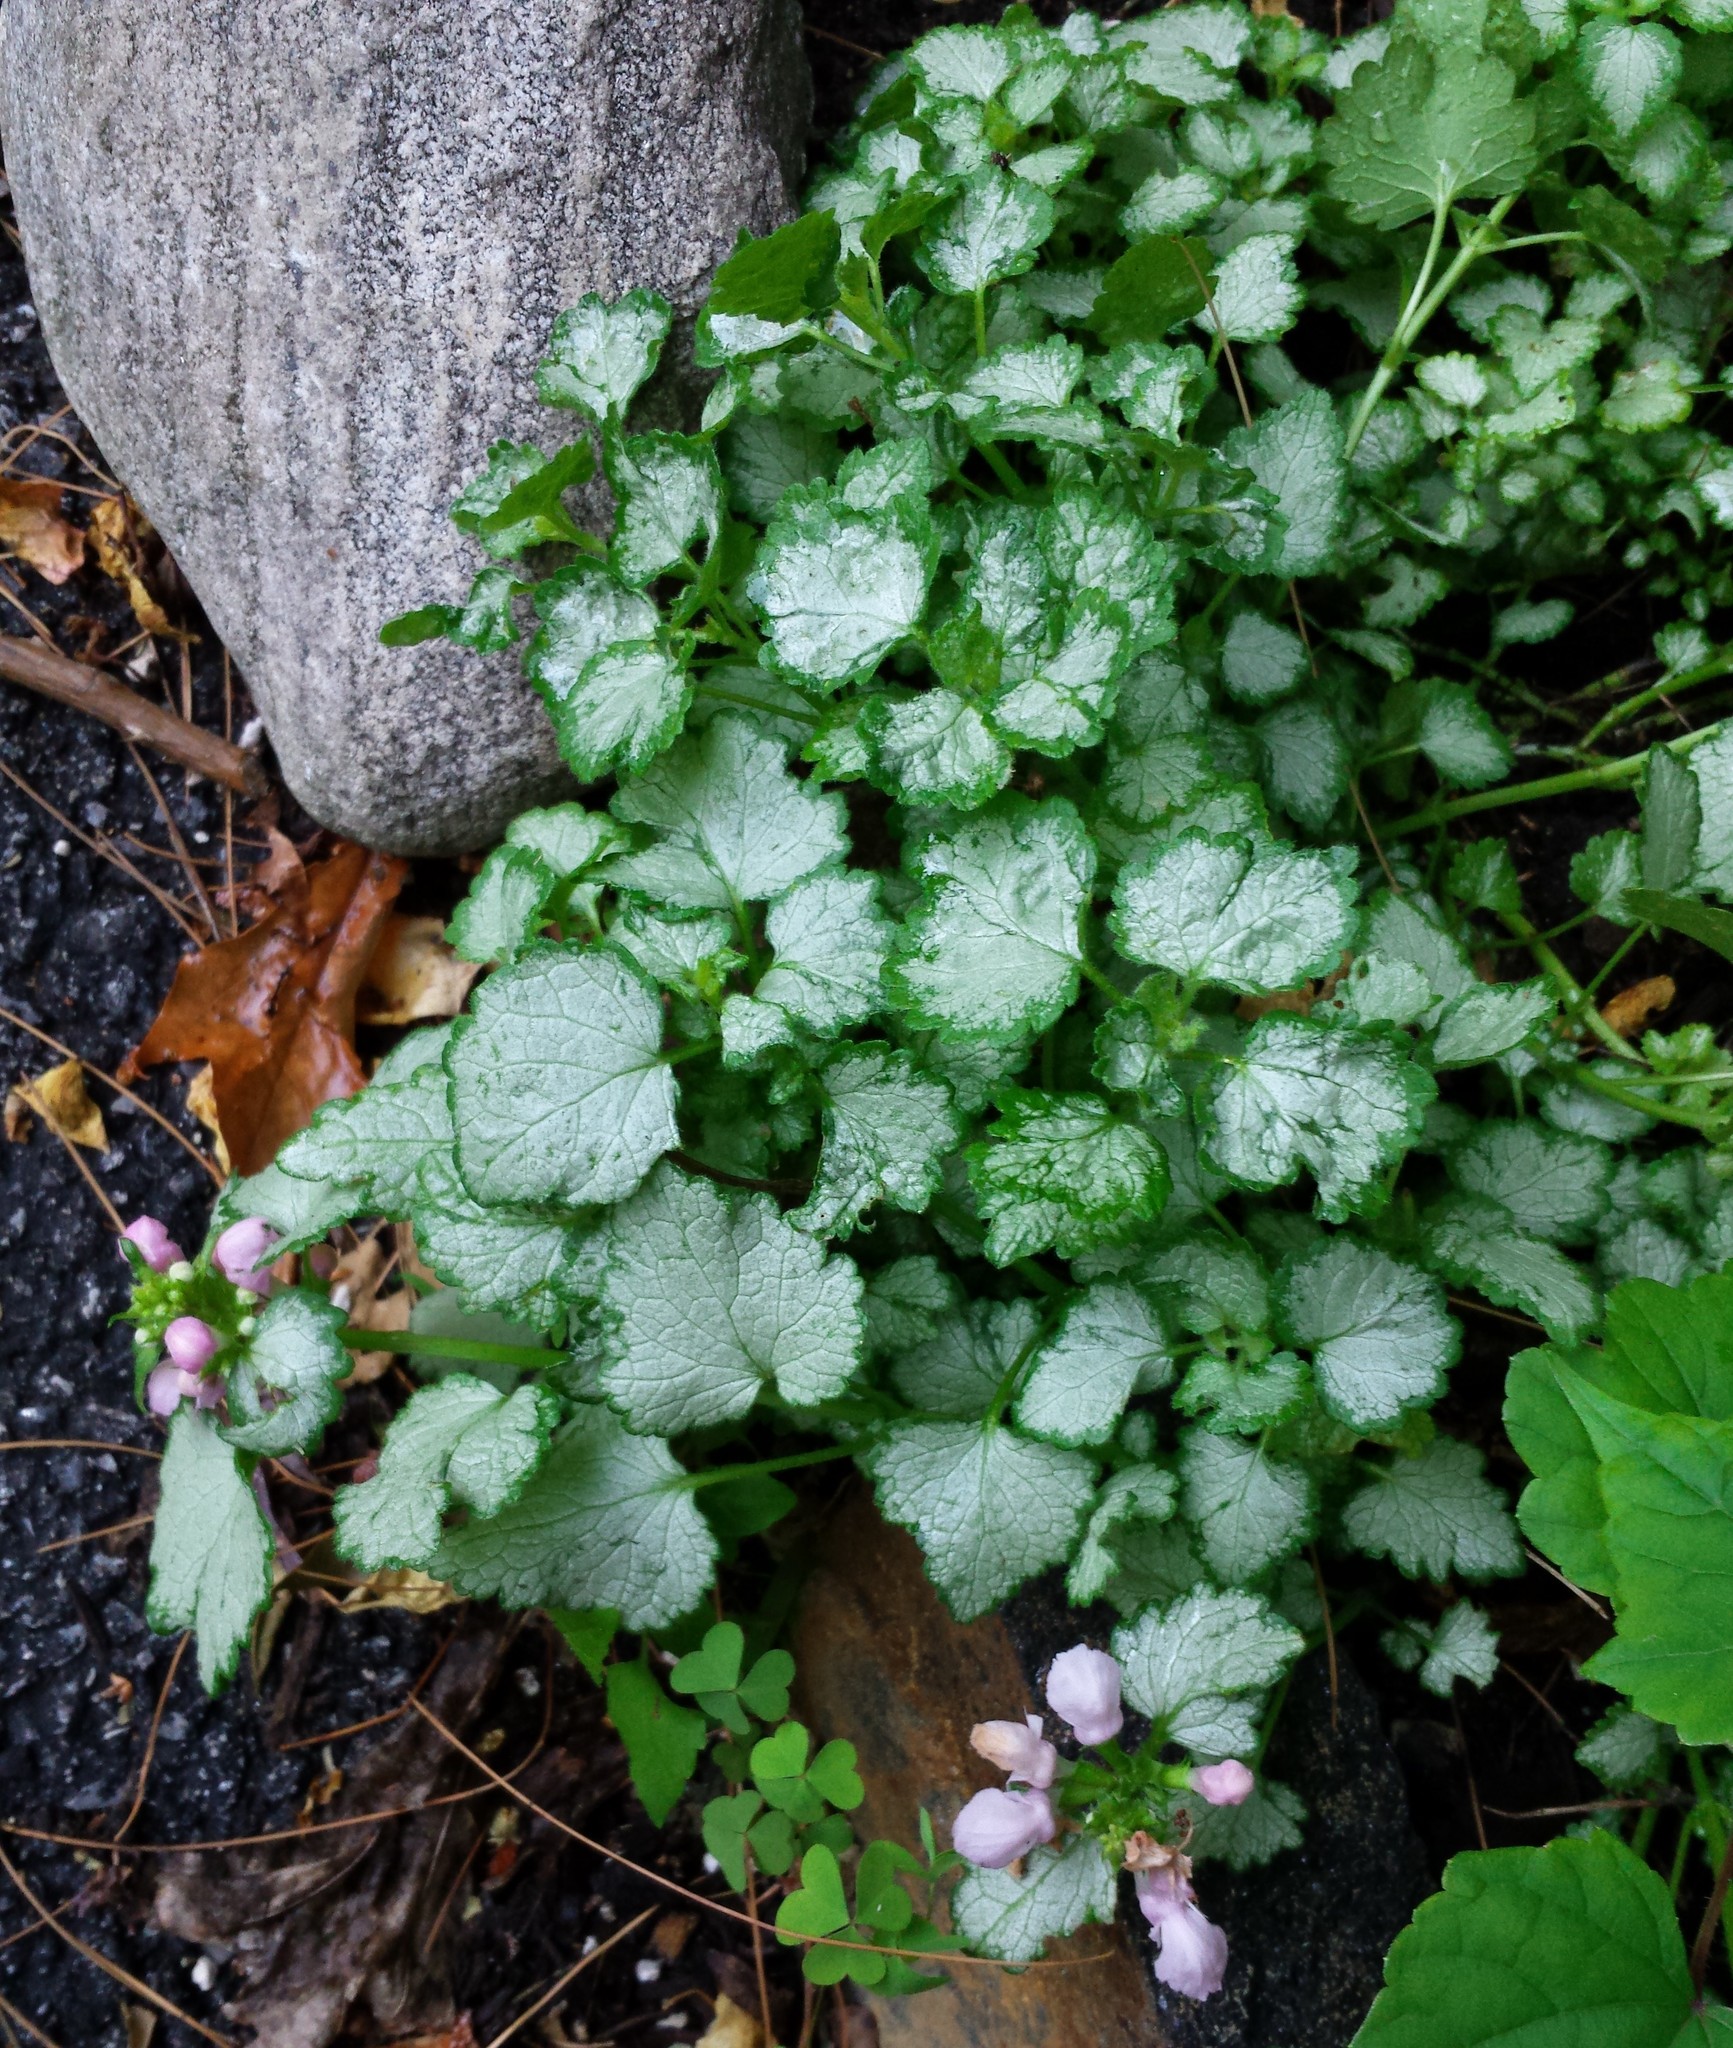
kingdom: Plantae
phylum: Tracheophyta
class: Magnoliopsida
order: Lamiales
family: Lamiaceae
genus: Lamium
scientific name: Lamium maculatum
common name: Spotted dead-nettle
